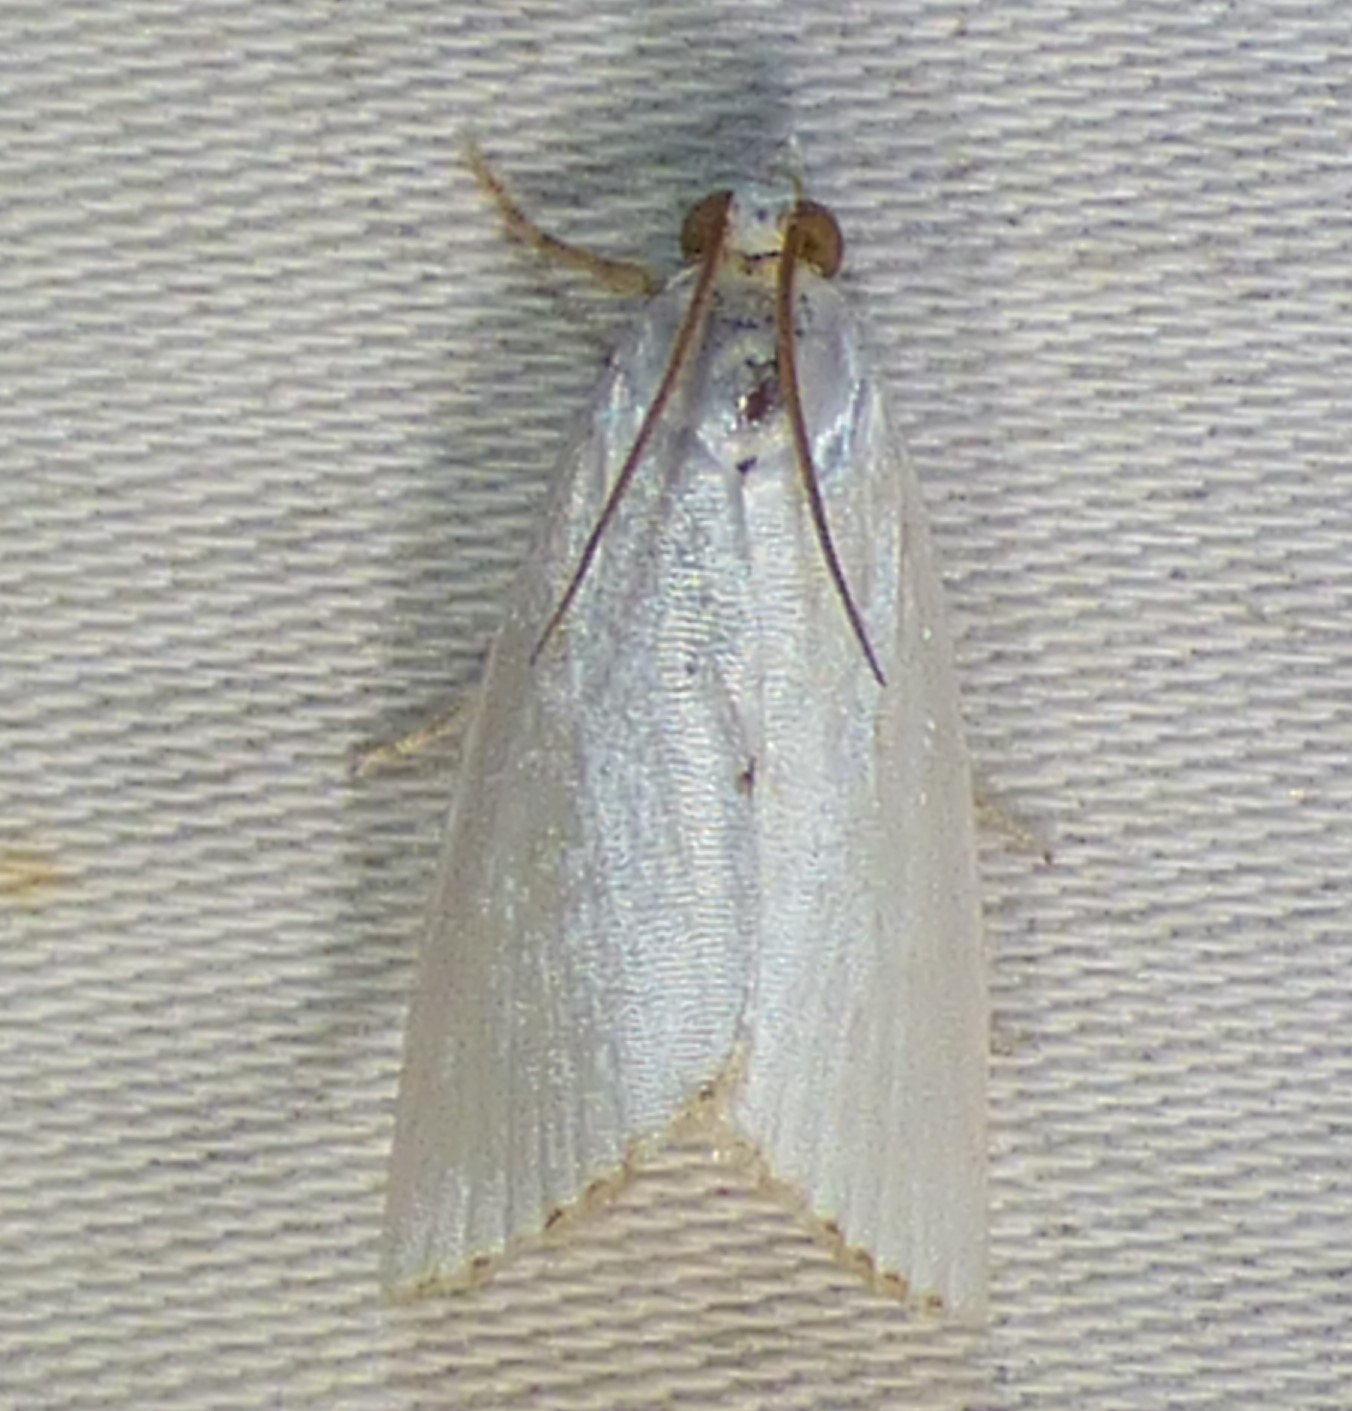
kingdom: Animalia
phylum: Arthropoda
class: Insecta
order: Lepidoptera
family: Crambidae
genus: Argyria
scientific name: Argyria nivalis
